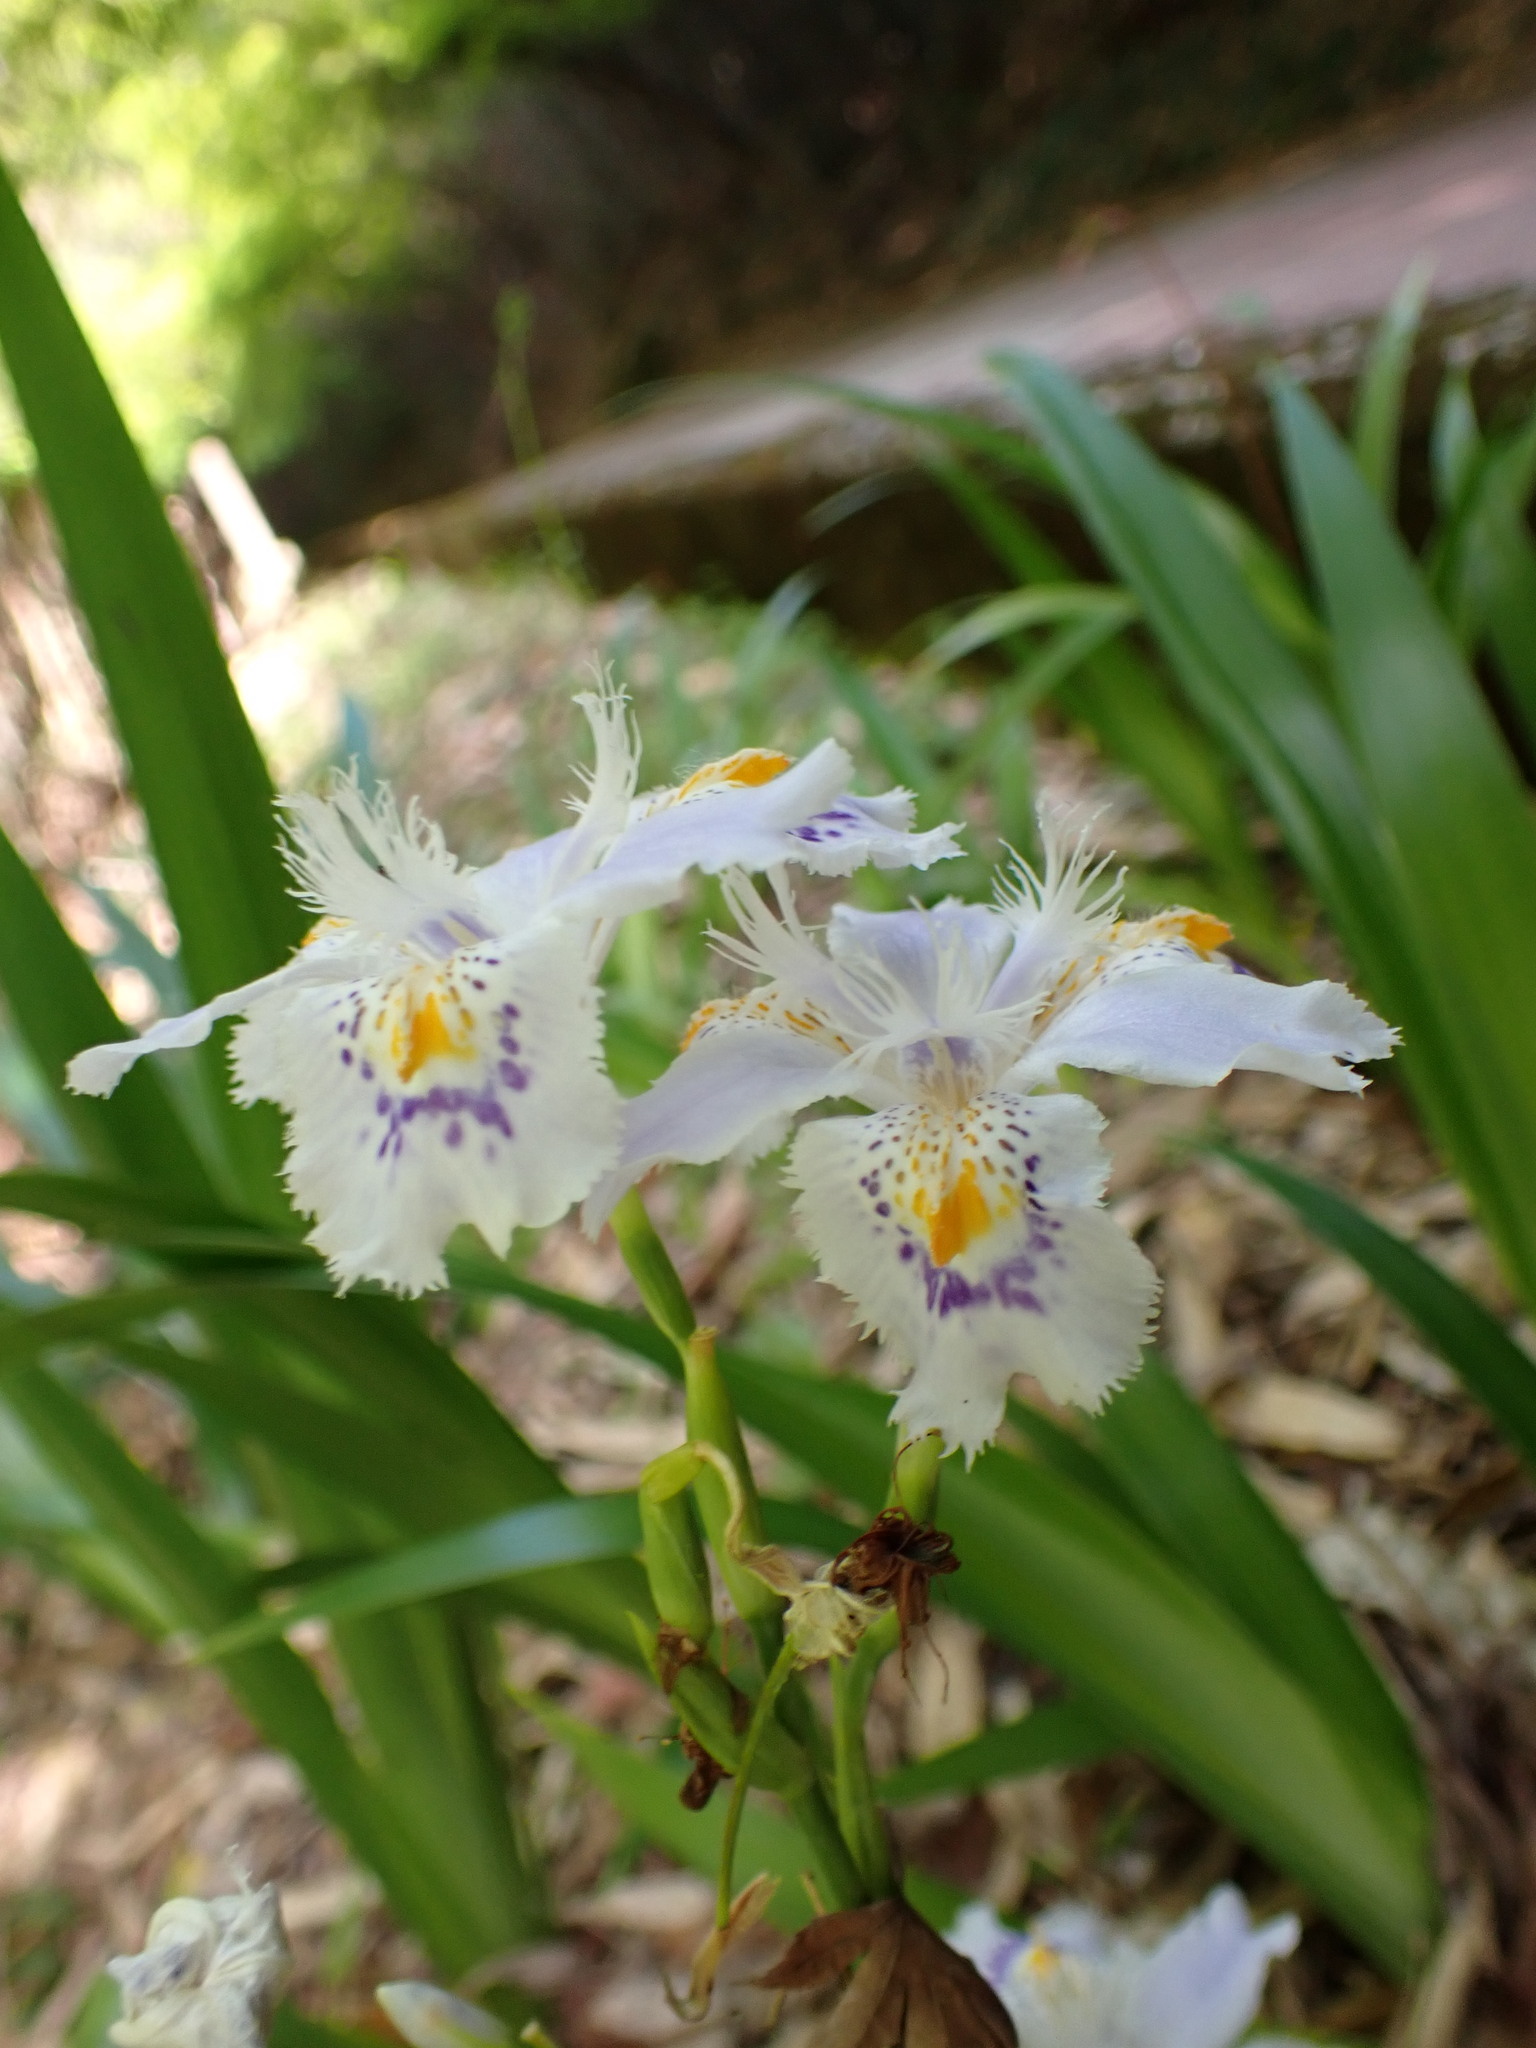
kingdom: Plantae
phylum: Tracheophyta
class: Liliopsida
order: Asparagales
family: Iridaceae
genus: Iris
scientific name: Iris japonica
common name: Butterfly-flower
